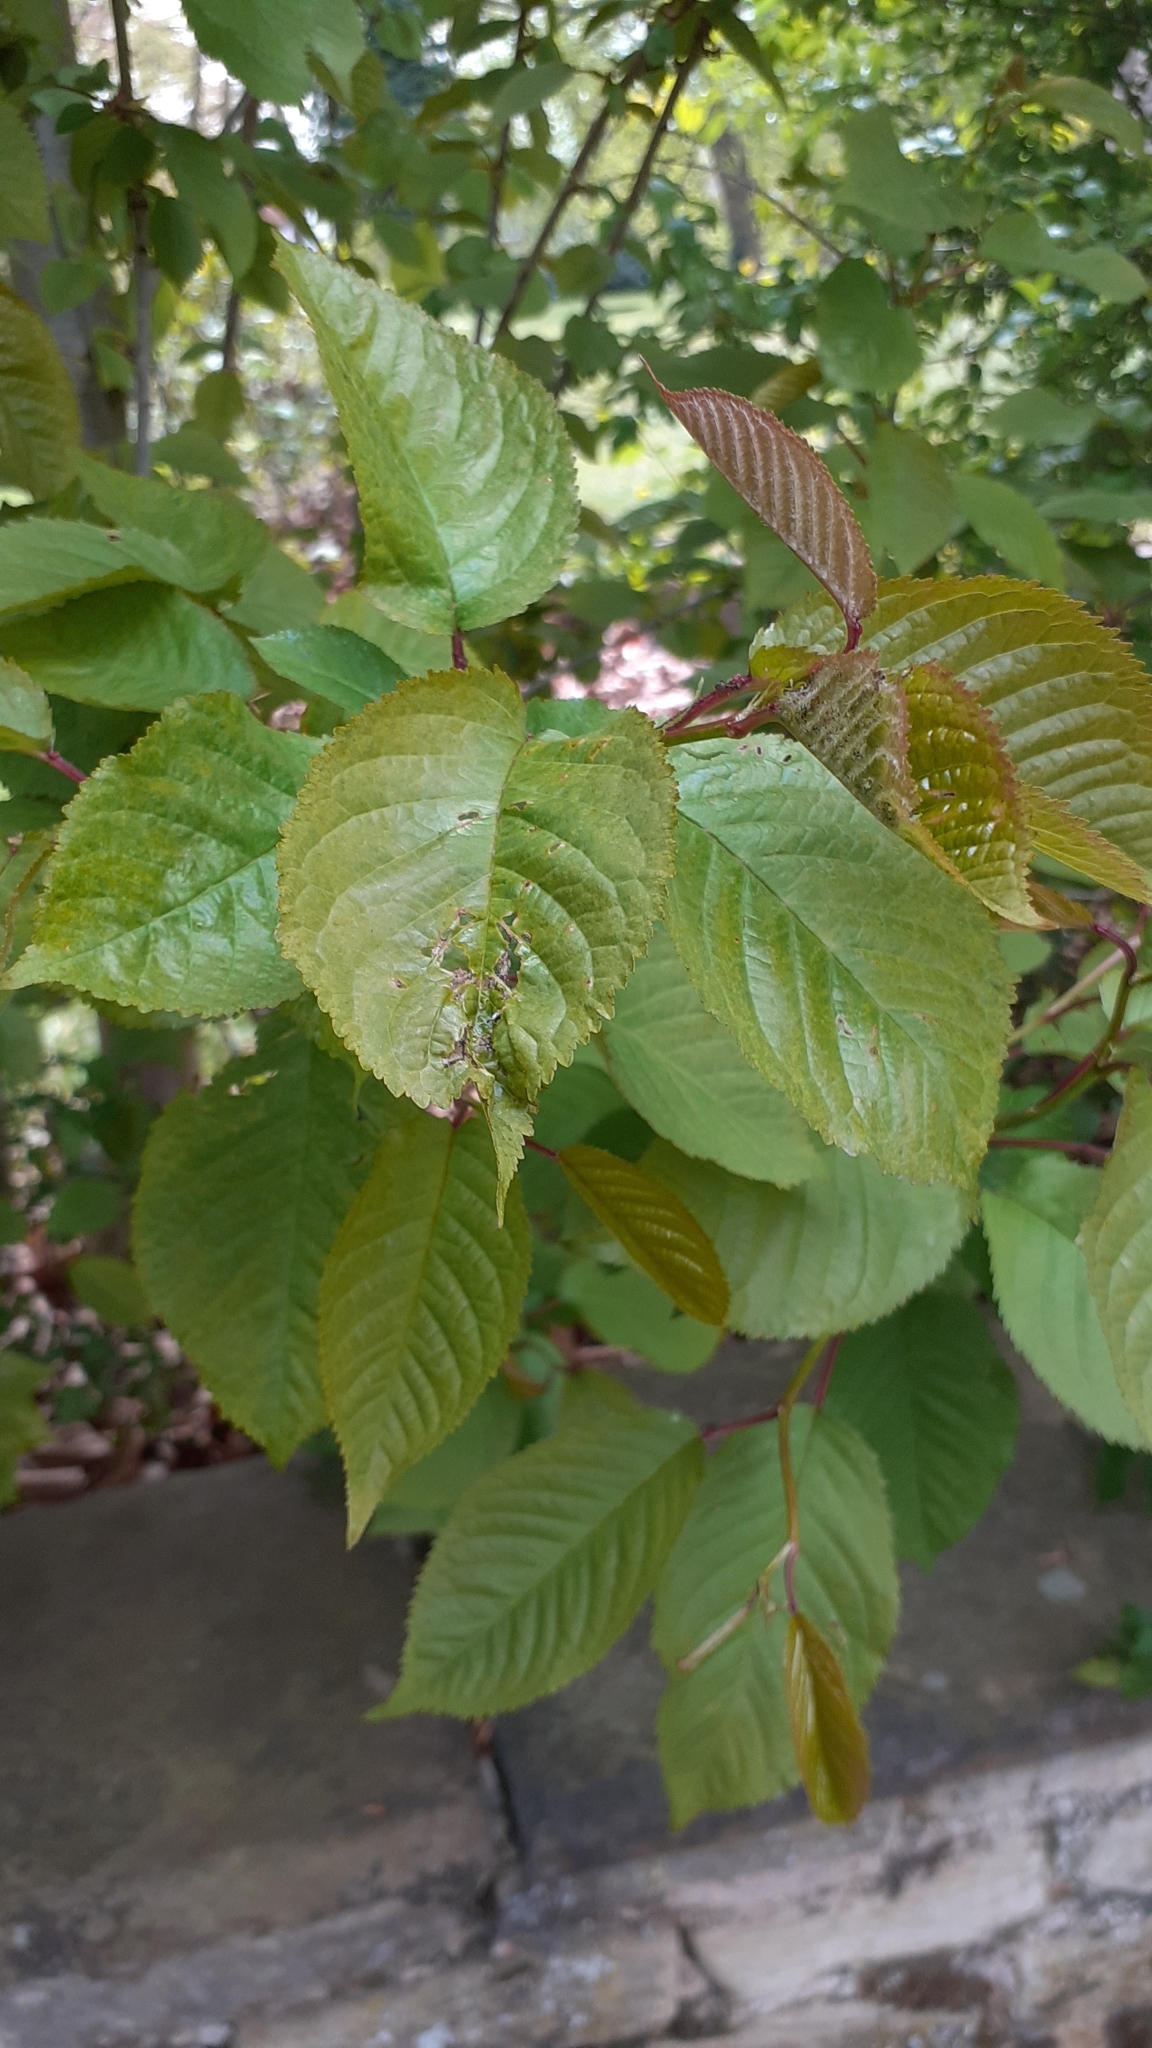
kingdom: Plantae
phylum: Tracheophyta
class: Magnoliopsida
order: Rosales
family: Rosaceae
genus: Prunus
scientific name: Prunus avium
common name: Sweet cherry
